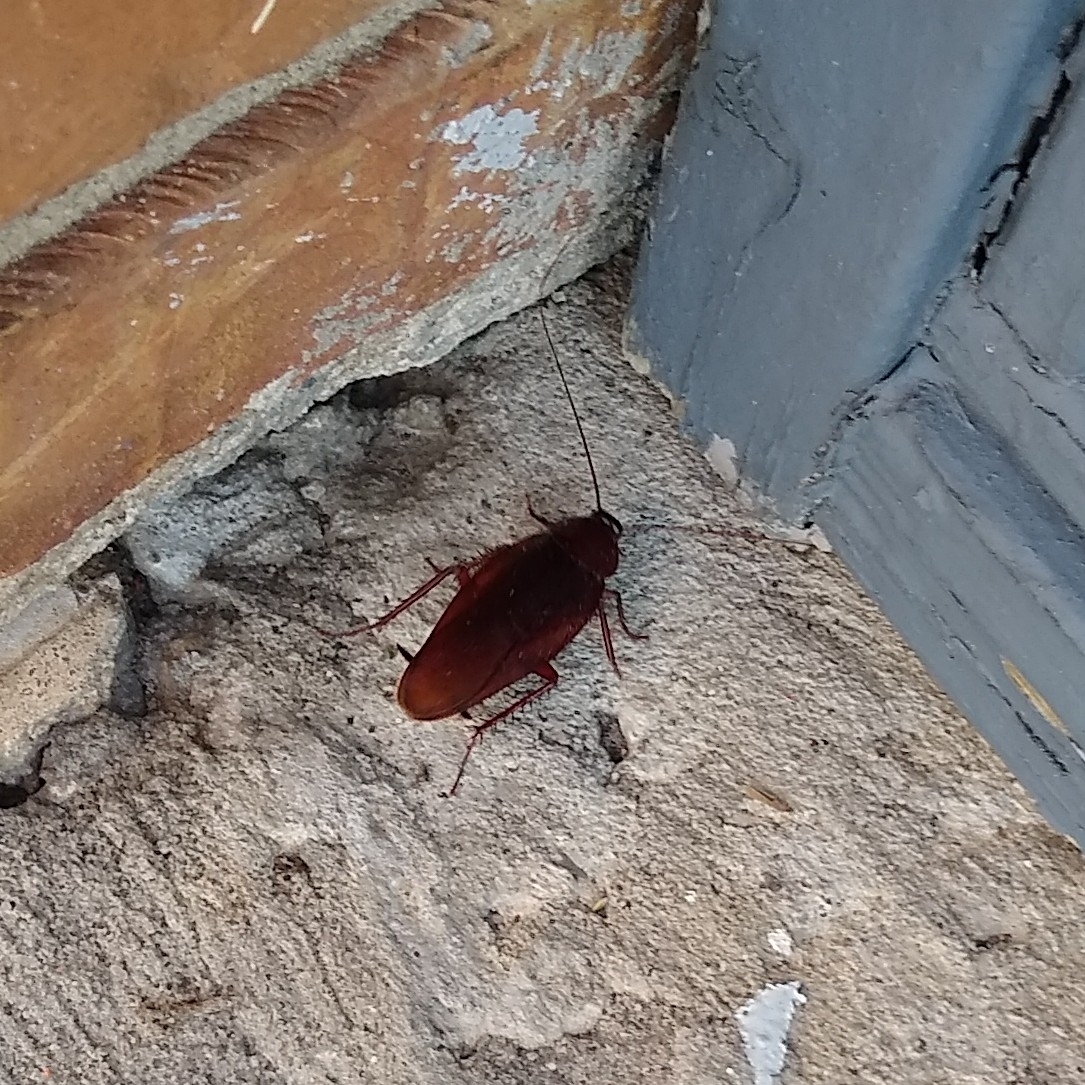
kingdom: Animalia
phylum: Arthropoda
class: Insecta
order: Blattodea
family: Blattidae
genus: Periplaneta
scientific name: Periplaneta fuliginosa
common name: Smokeybrown cockroad
